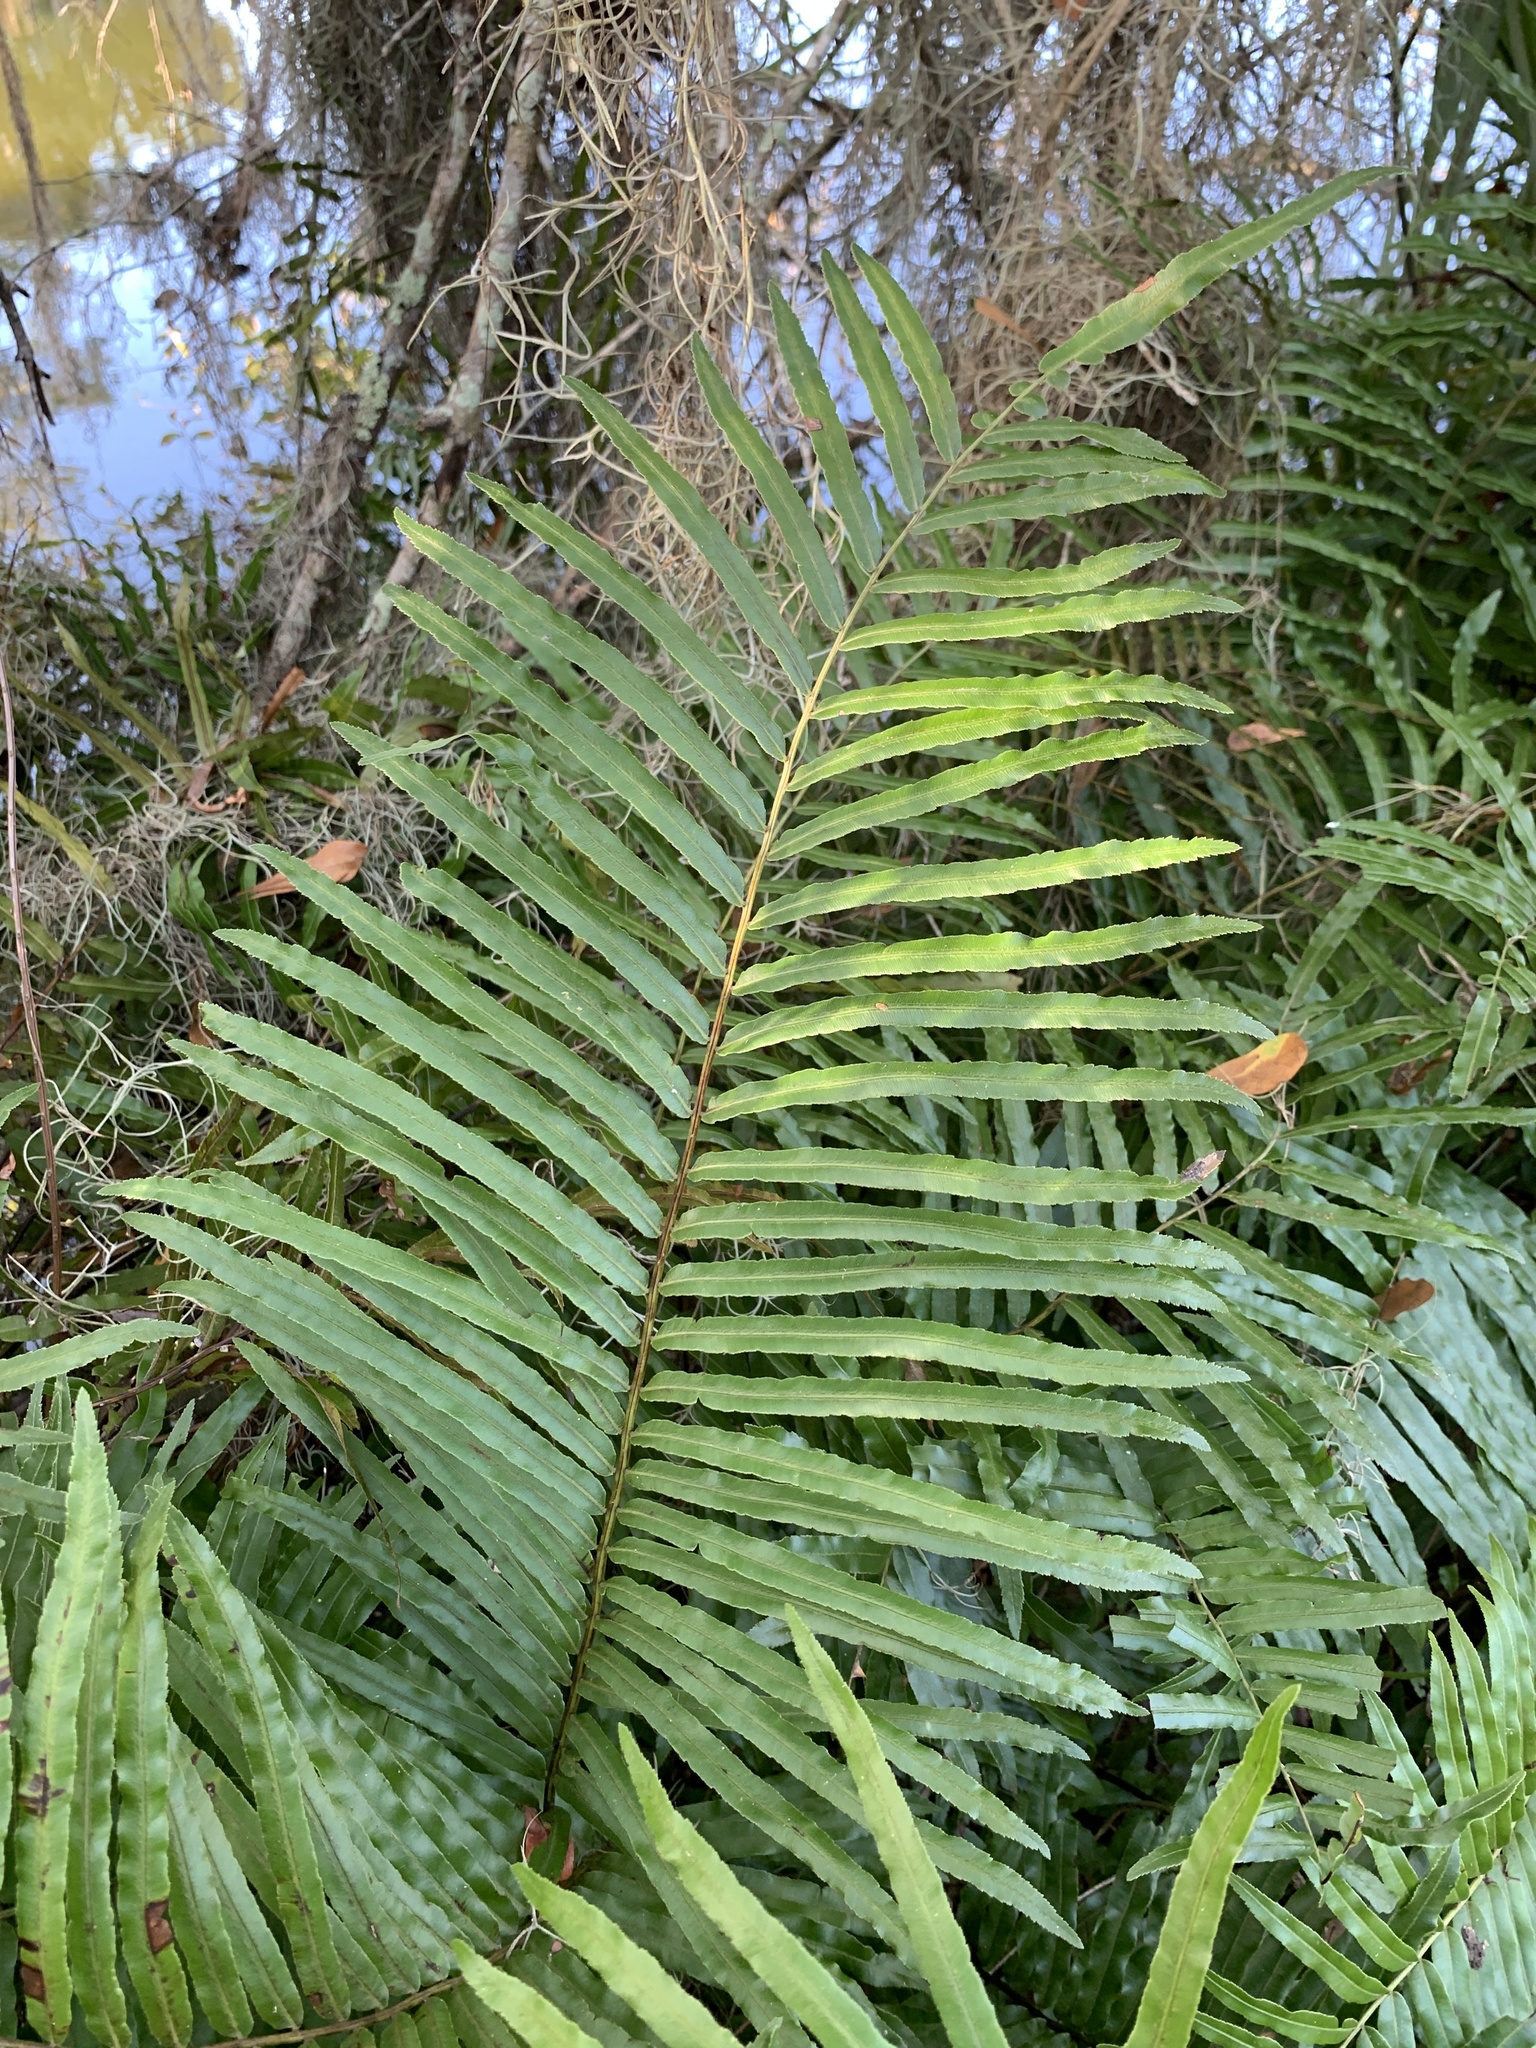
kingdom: Plantae
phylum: Tracheophyta
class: Polypodiopsida
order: Polypodiales
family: Blechnaceae
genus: Telmatoblechnum
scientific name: Telmatoblechnum serrulatum
